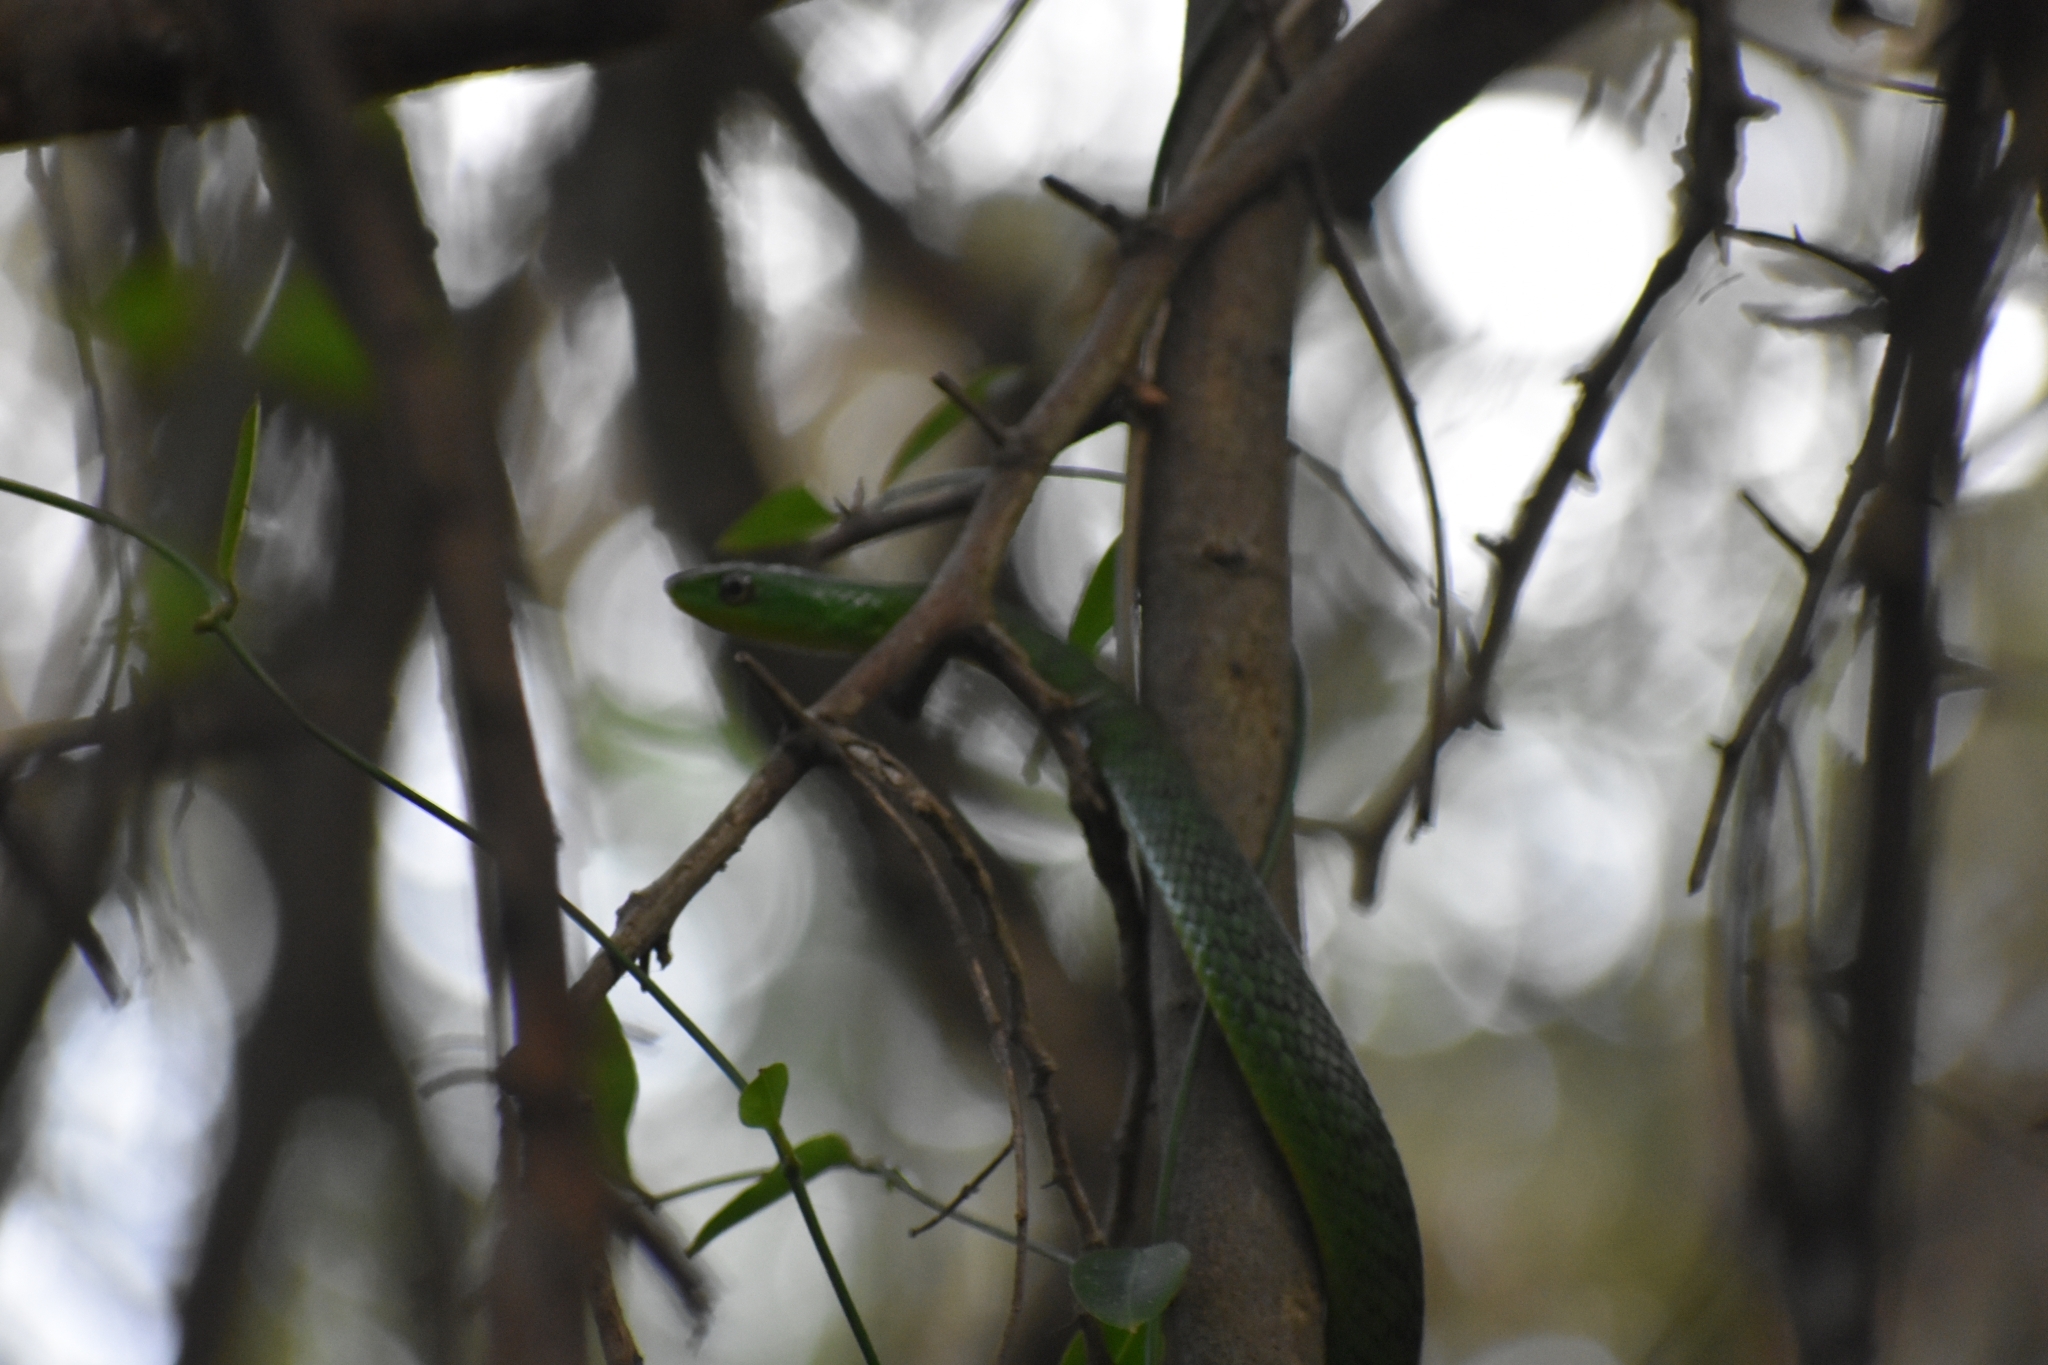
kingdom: Animalia
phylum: Chordata
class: Squamata
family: Colubridae
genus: Philothamnus
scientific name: Philothamnus natalensis
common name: Eastern natal green snake
